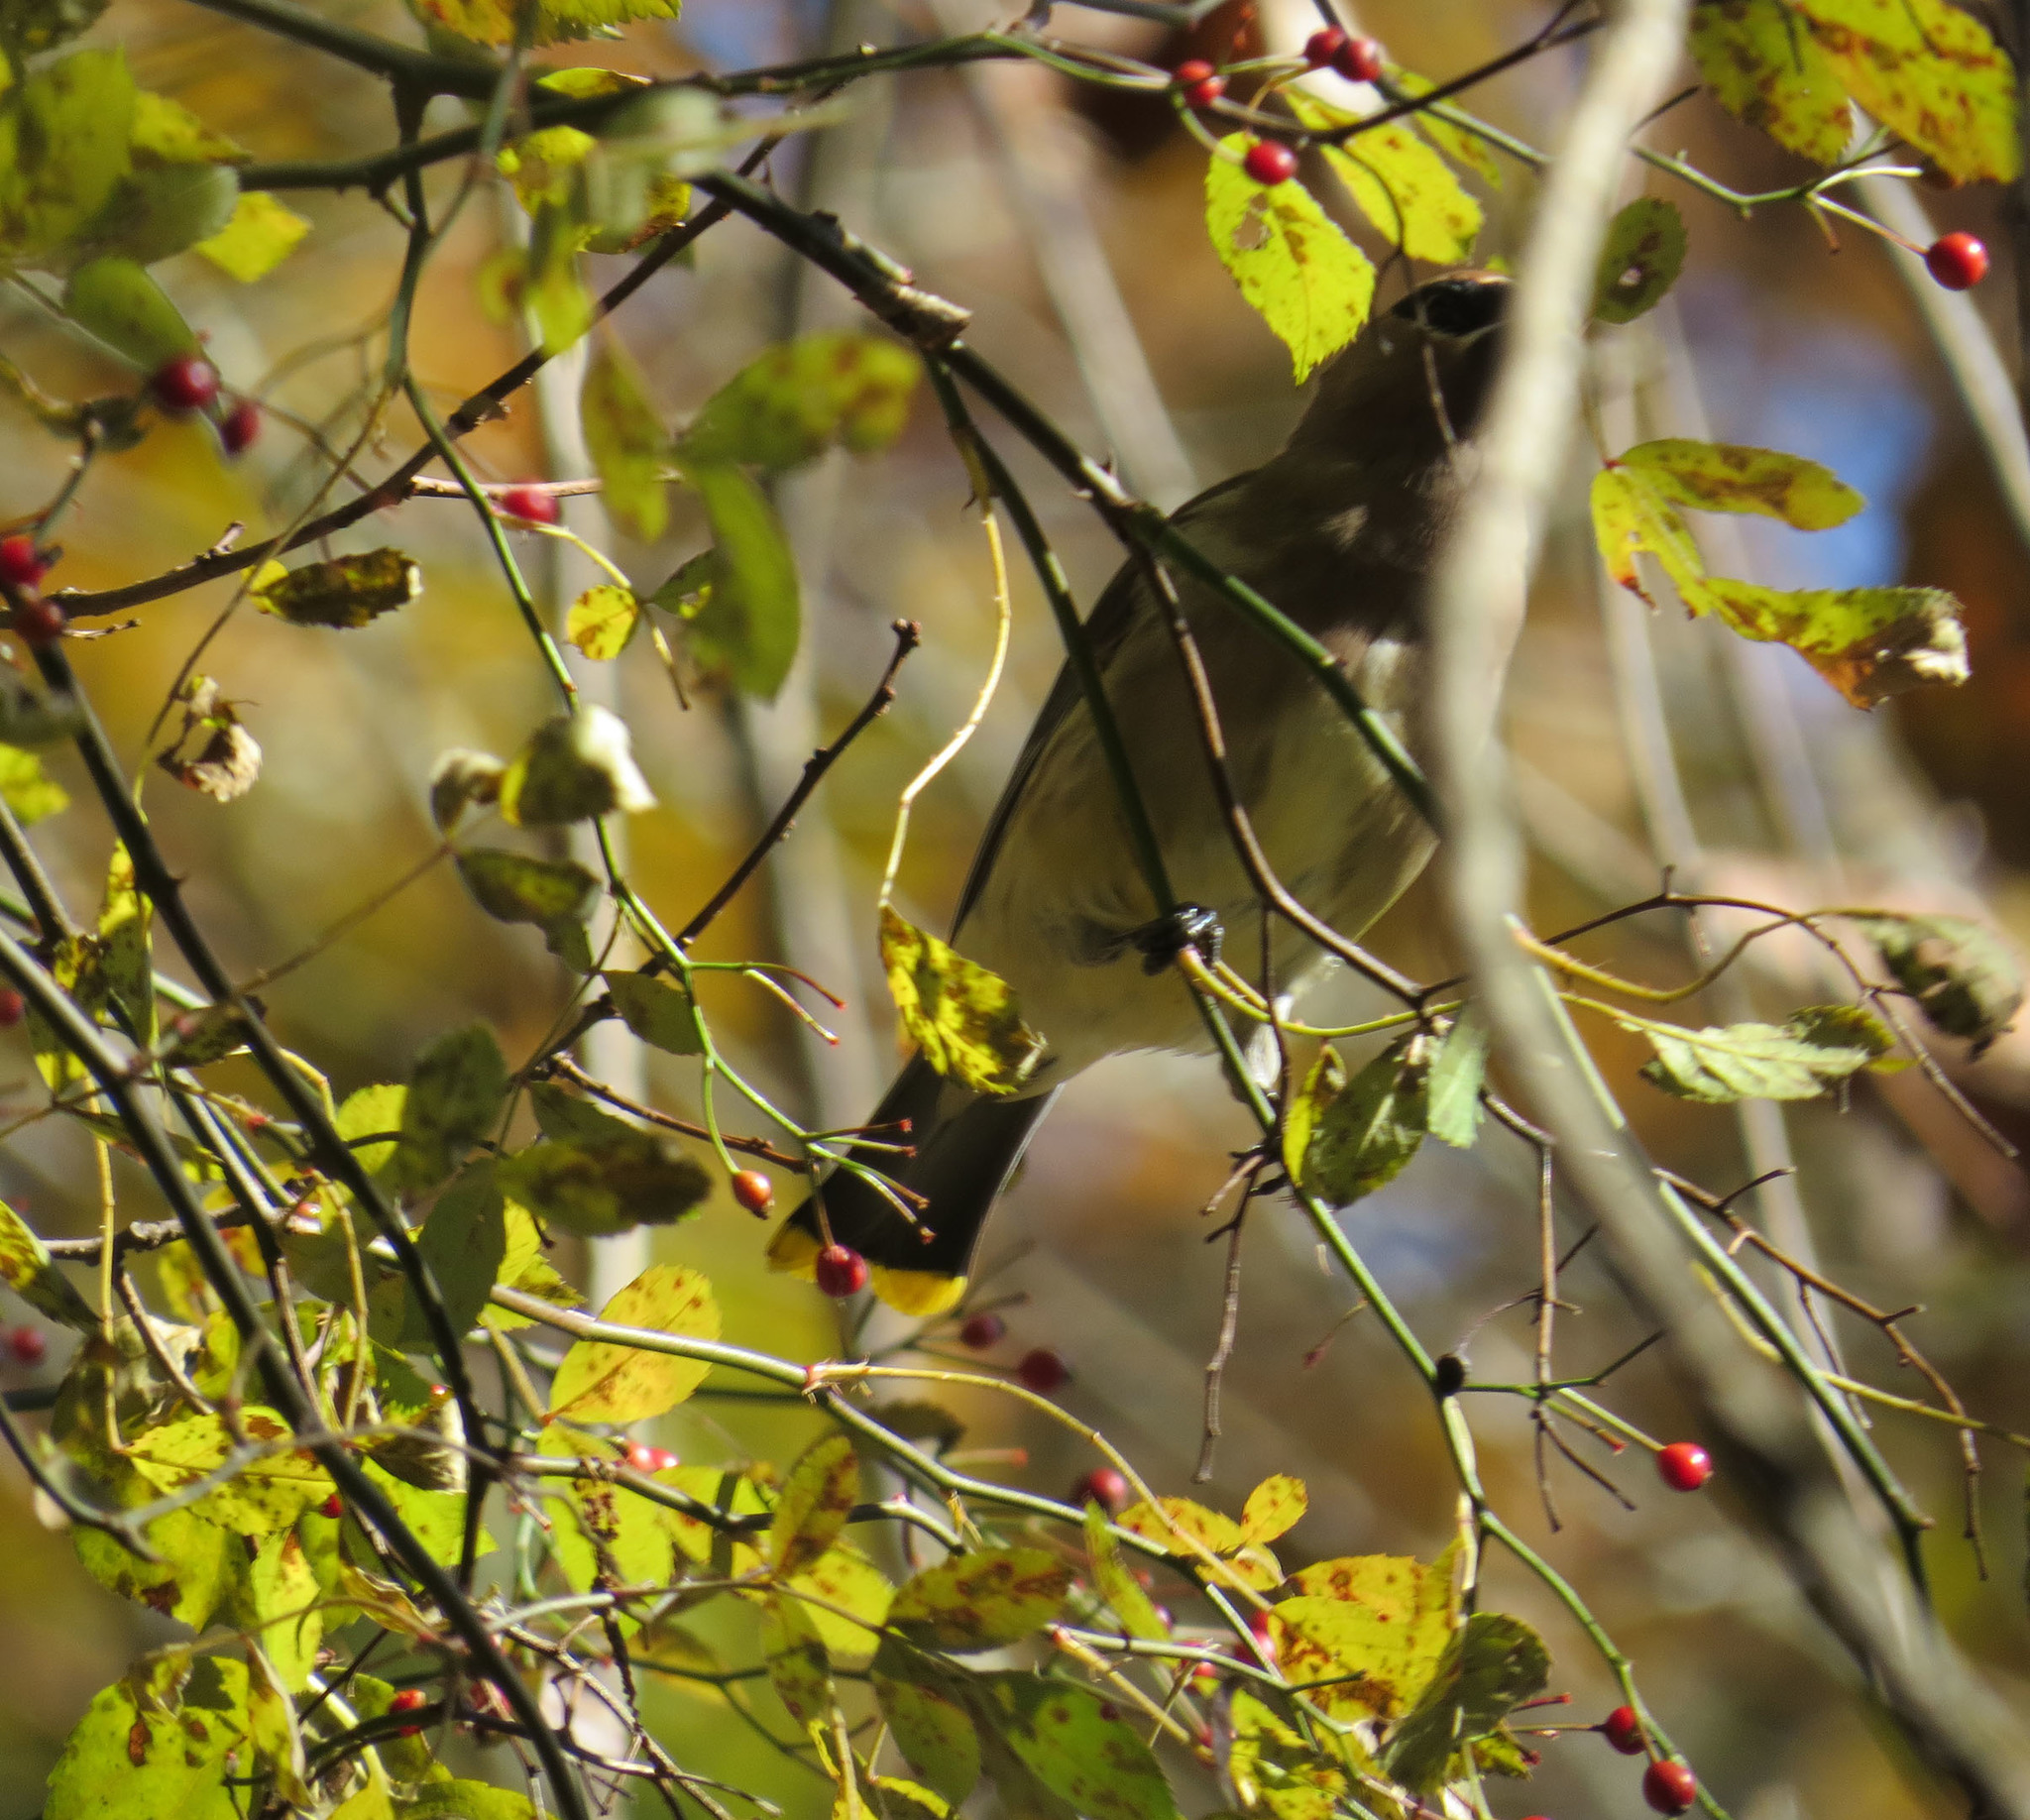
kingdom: Animalia
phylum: Chordata
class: Aves
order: Passeriformes
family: Bombycillidae
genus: Bombycilla
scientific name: Bombycilla cedrorum
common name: Cedar waxwing
